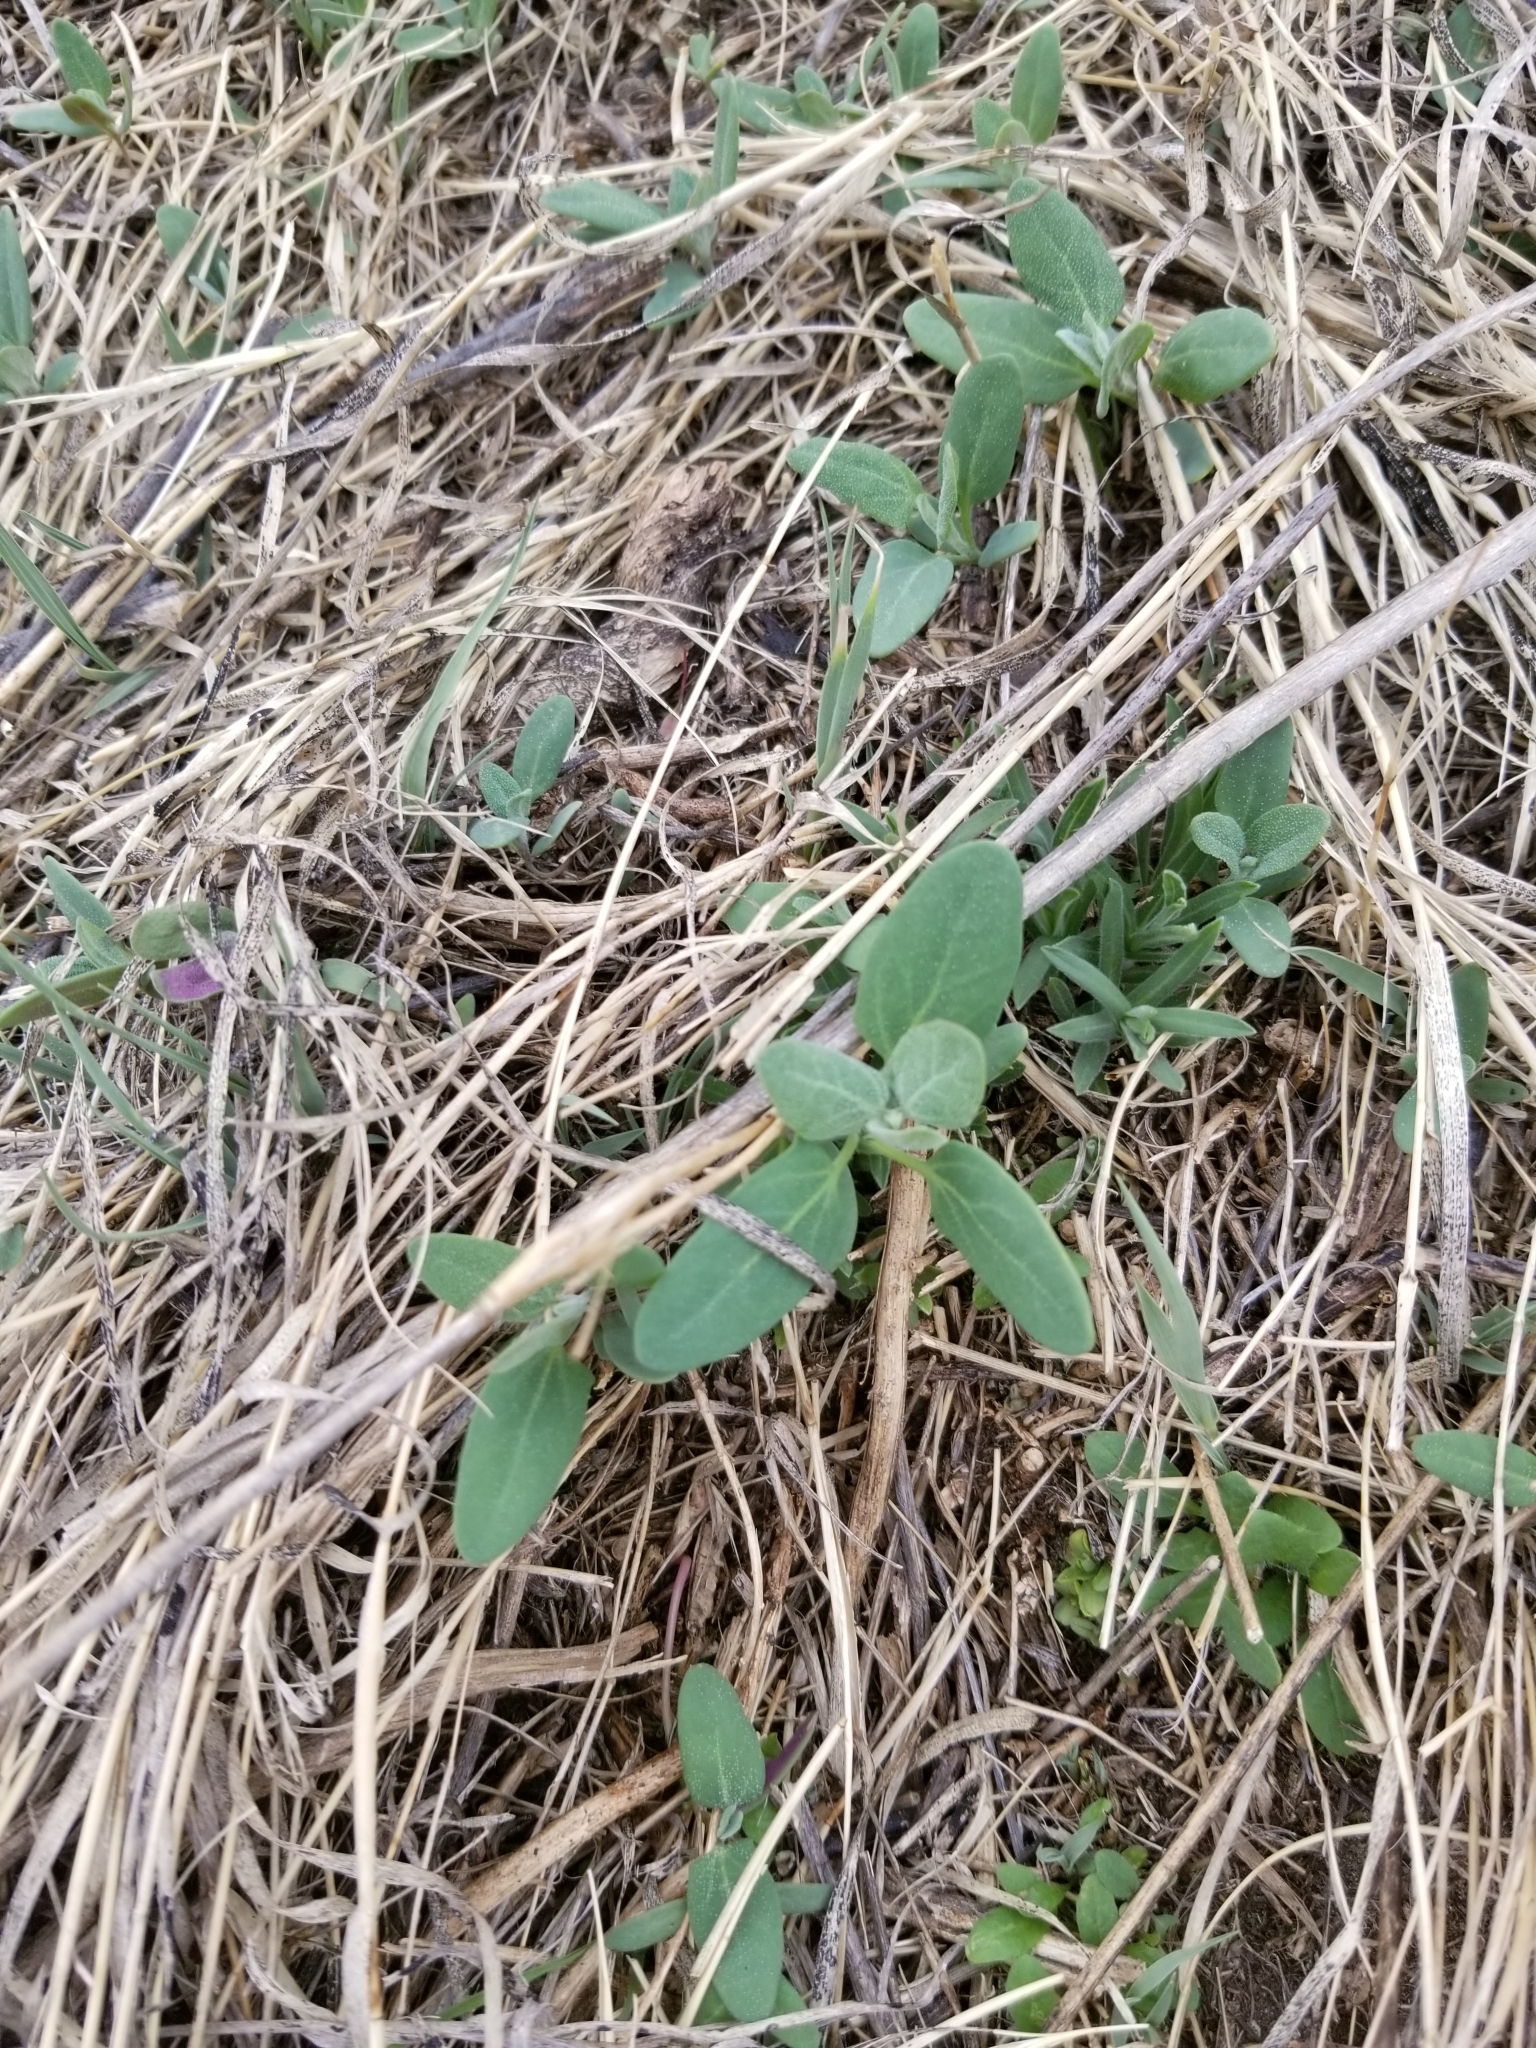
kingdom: Plantae
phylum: Tracheophyta
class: Magnoliopsida
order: Caryophyllales
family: Amaranthaceae
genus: Chenopodium
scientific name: Chenopodium album
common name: Fat-hen
